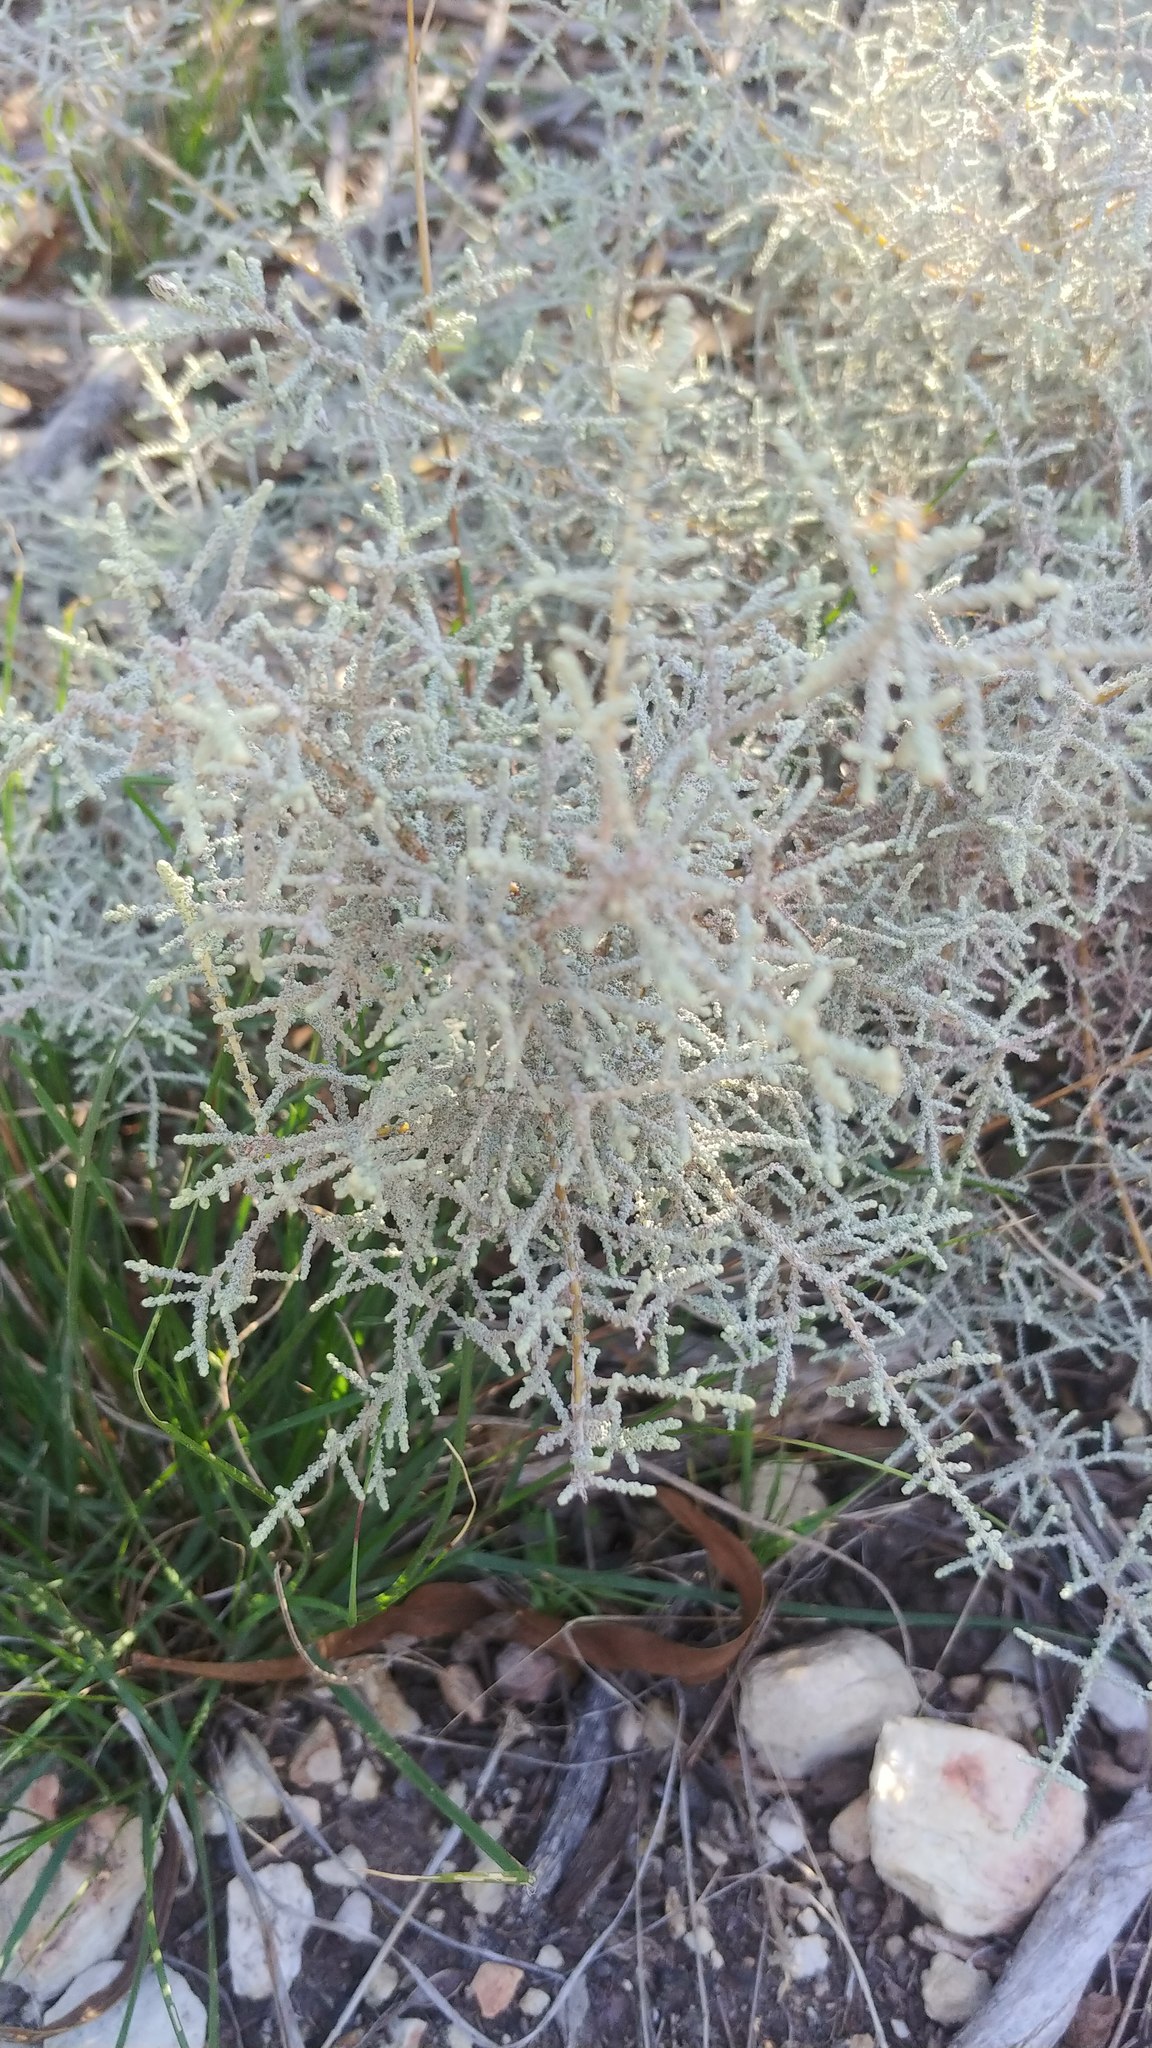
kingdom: Plantae
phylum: Tracheophyta
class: Magnoliopsida
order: Asterales
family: Asteraceae
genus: Seriphium
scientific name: Seriphium plumosum
